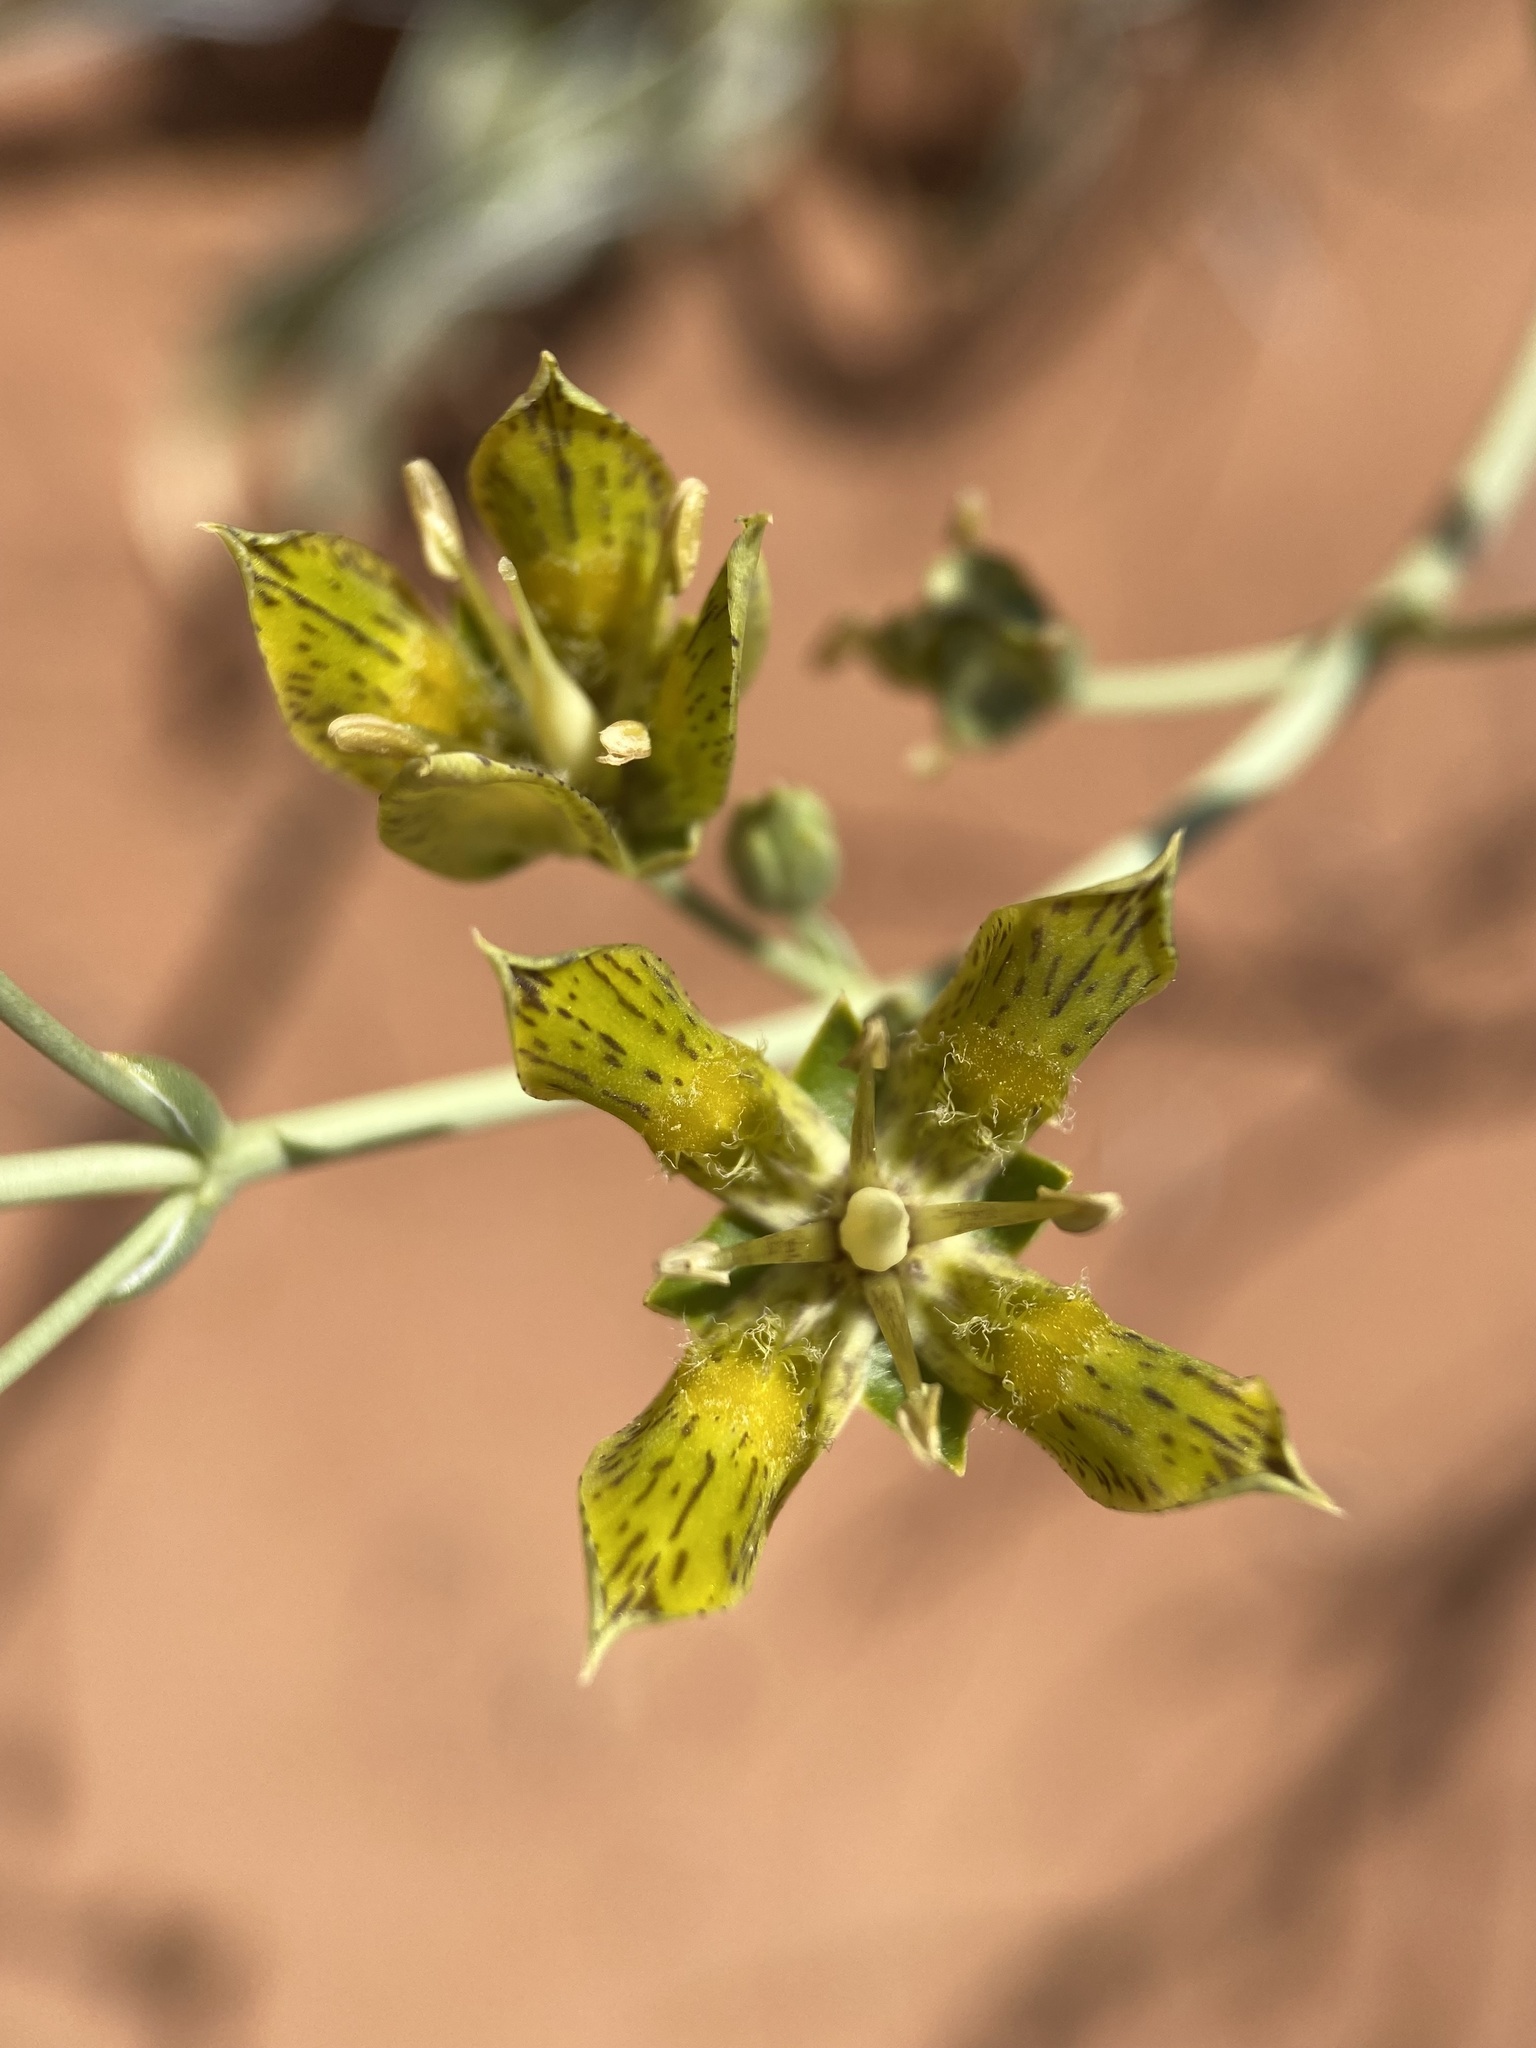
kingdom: Plantae
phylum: Tracheophyta
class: Magnoliopsida
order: Gentianales
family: Gentianaceae
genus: Frasera
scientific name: Frasera paniculata
